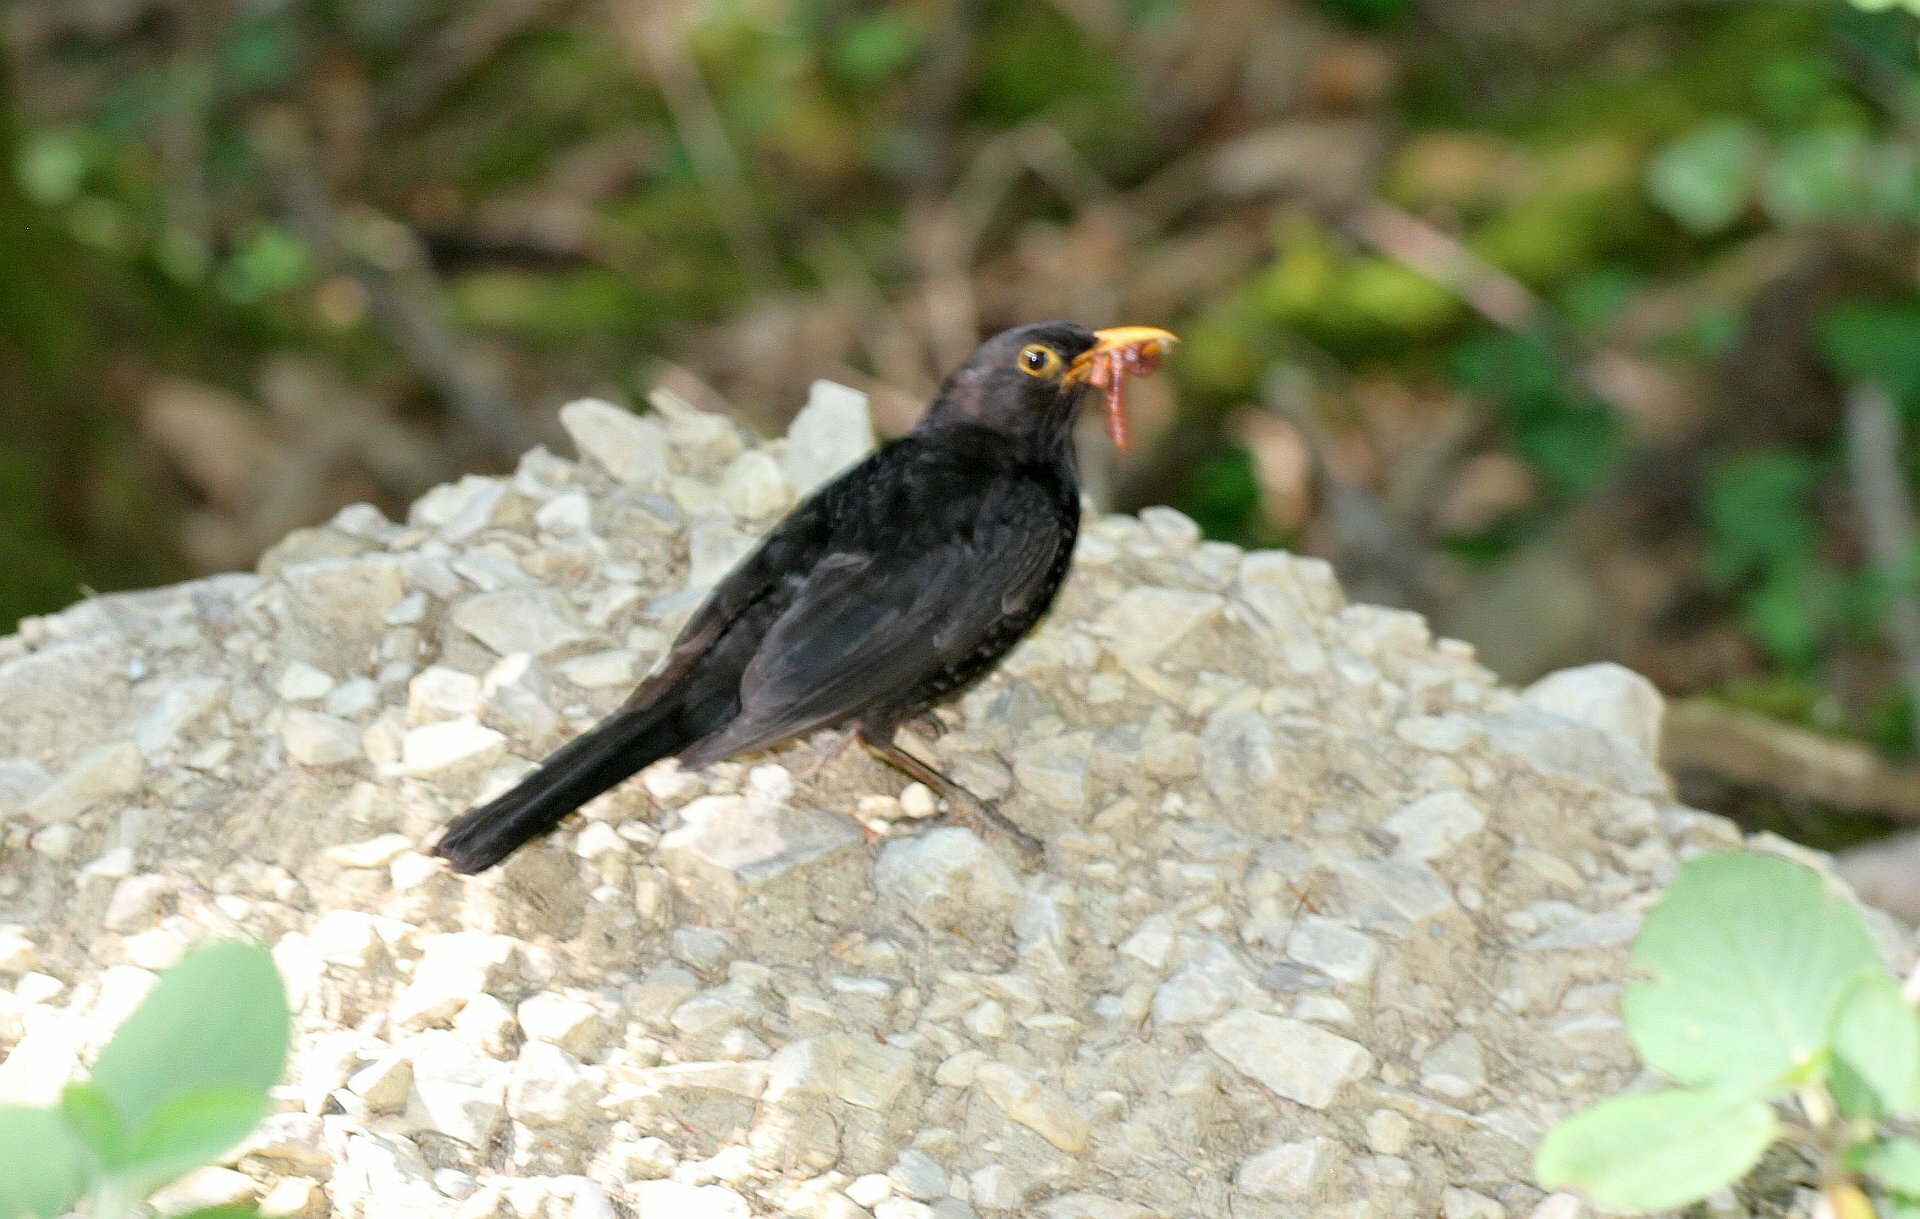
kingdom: Animalia
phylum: Chordata
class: Aves
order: Passeriformes
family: Turdidae
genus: Turdus
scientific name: Turdus merula
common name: Common blackbird
